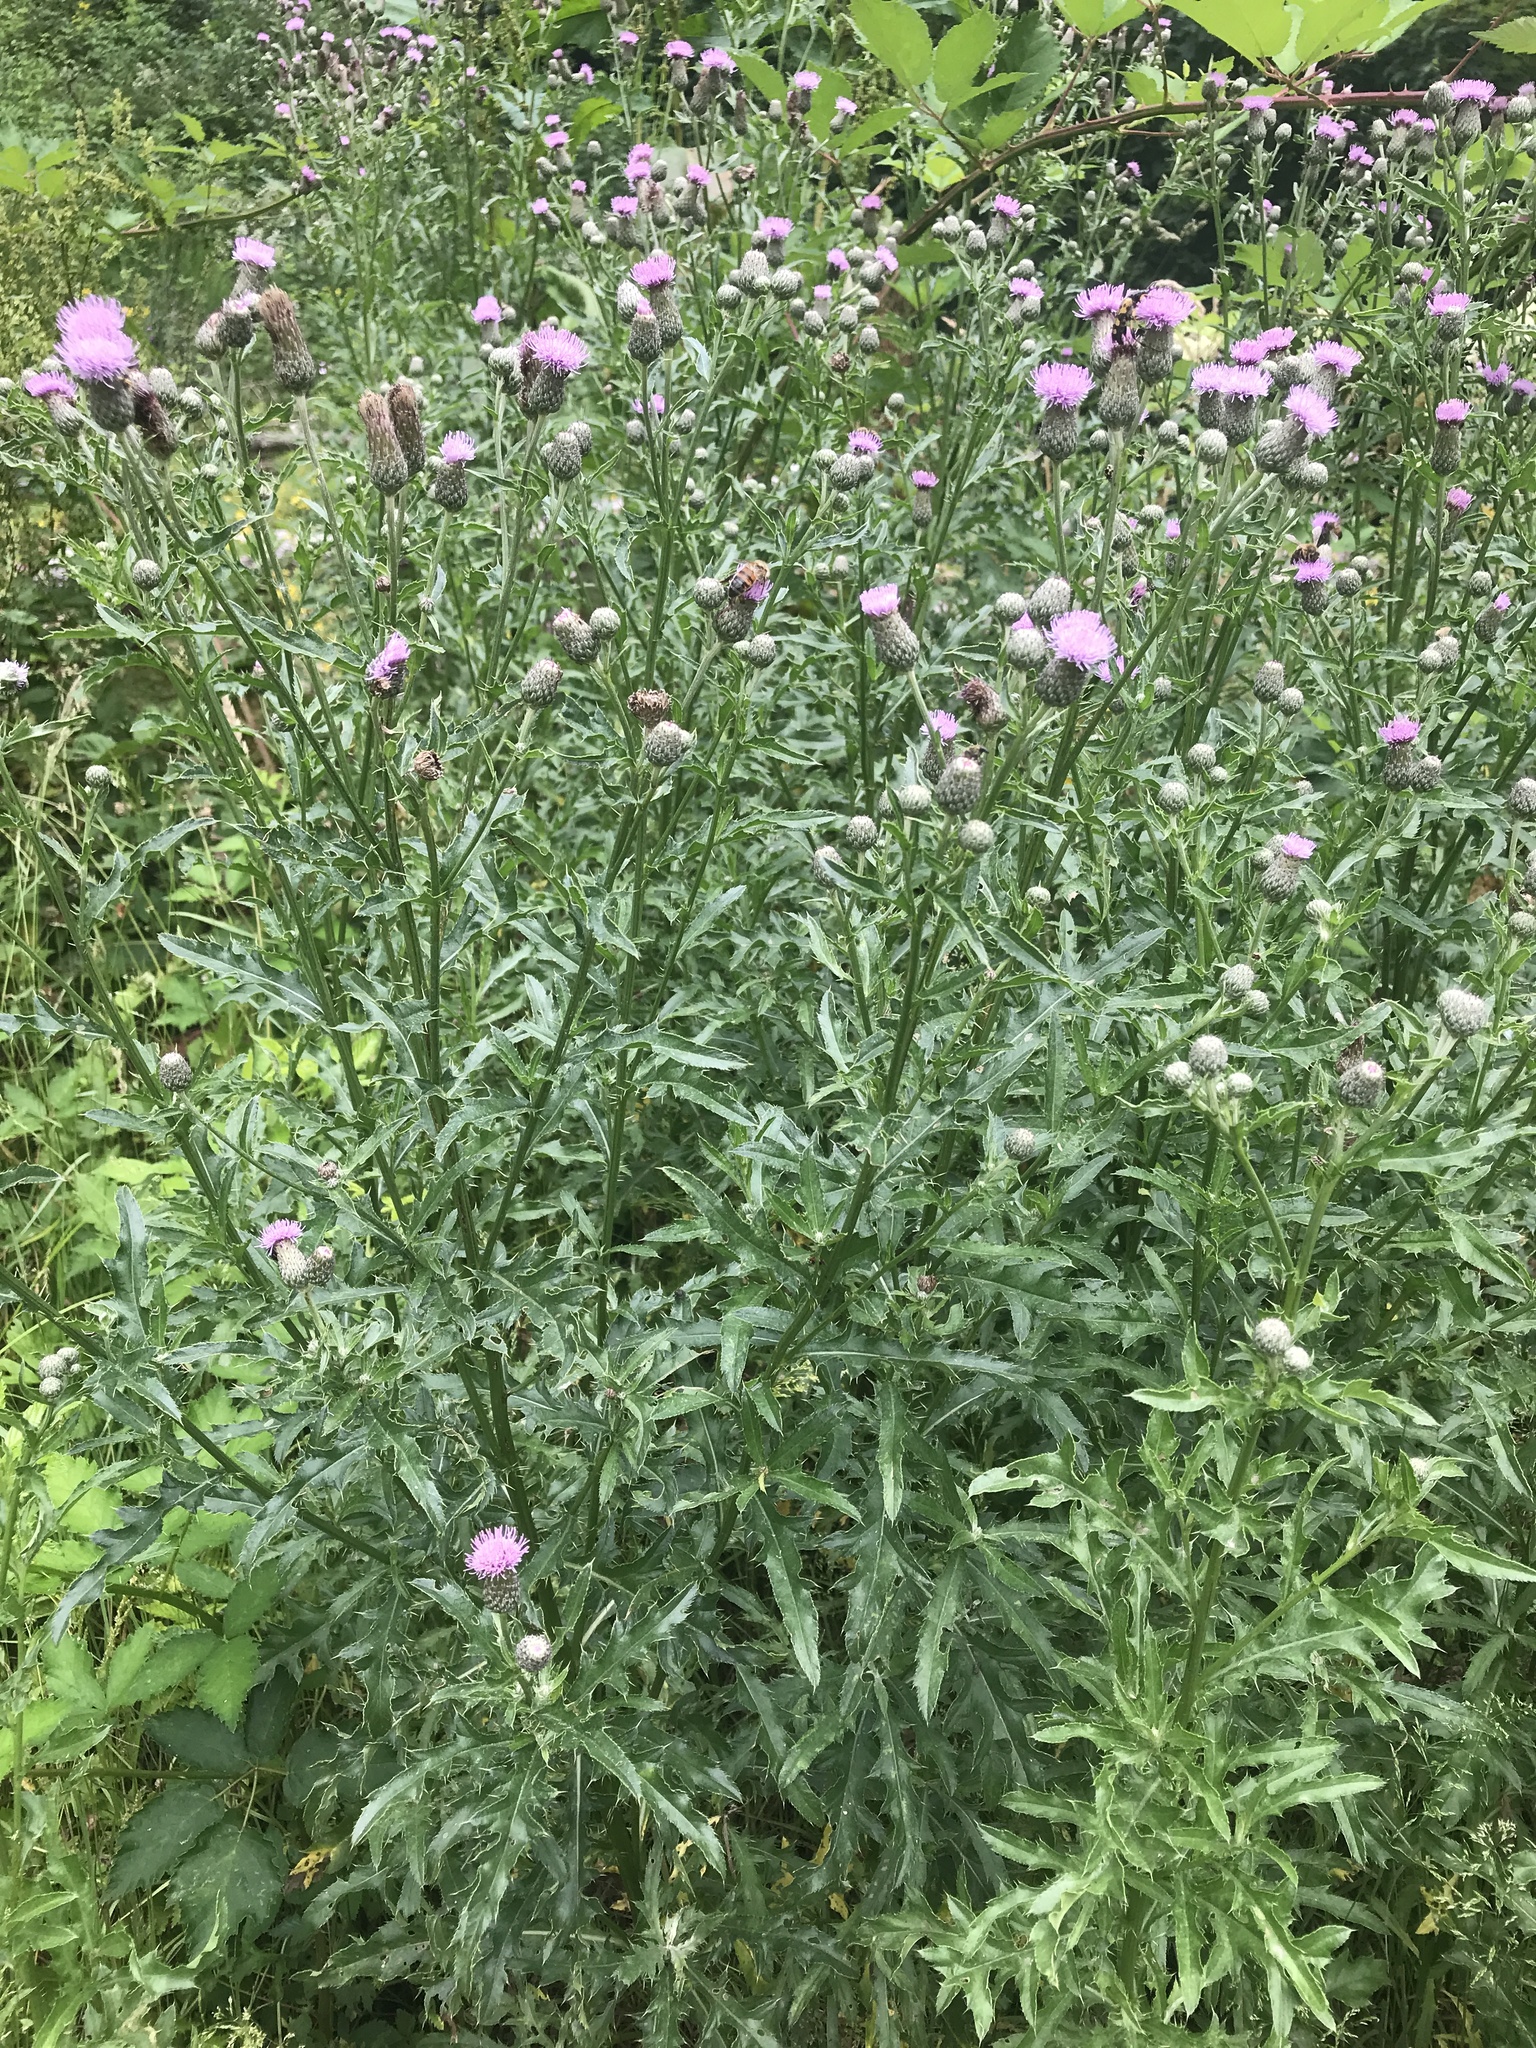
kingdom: Plantae
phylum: Tracheophyta
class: Magnoliopsida
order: Asterales
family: Asteraceae
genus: Cirsium
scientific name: Cirsium arvense
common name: Creeping thistle
